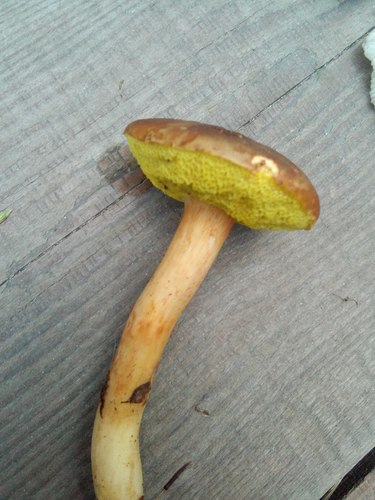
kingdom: Fungi
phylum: Basidiomycota
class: Agaricomycetes
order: Boletales
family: Boletaceae
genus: Xerocomus
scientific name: Xerocomus subtomentosus
